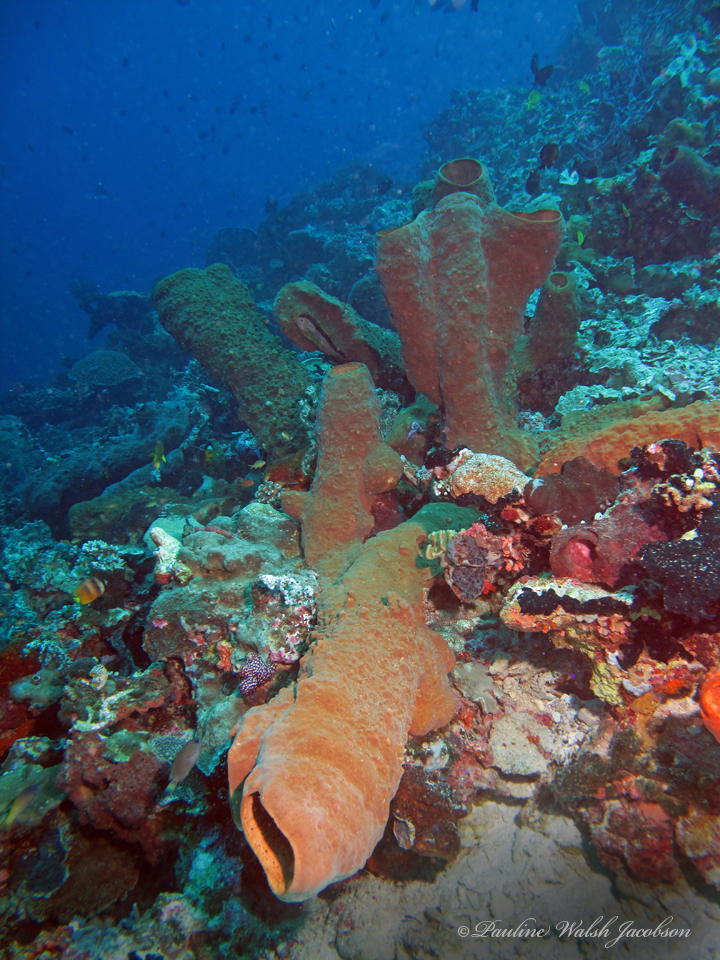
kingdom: Animalia
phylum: Porifera
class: Demospongiae
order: Haplosclerida
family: Petrosiidae
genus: Petrosia
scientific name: Petrosia plana
